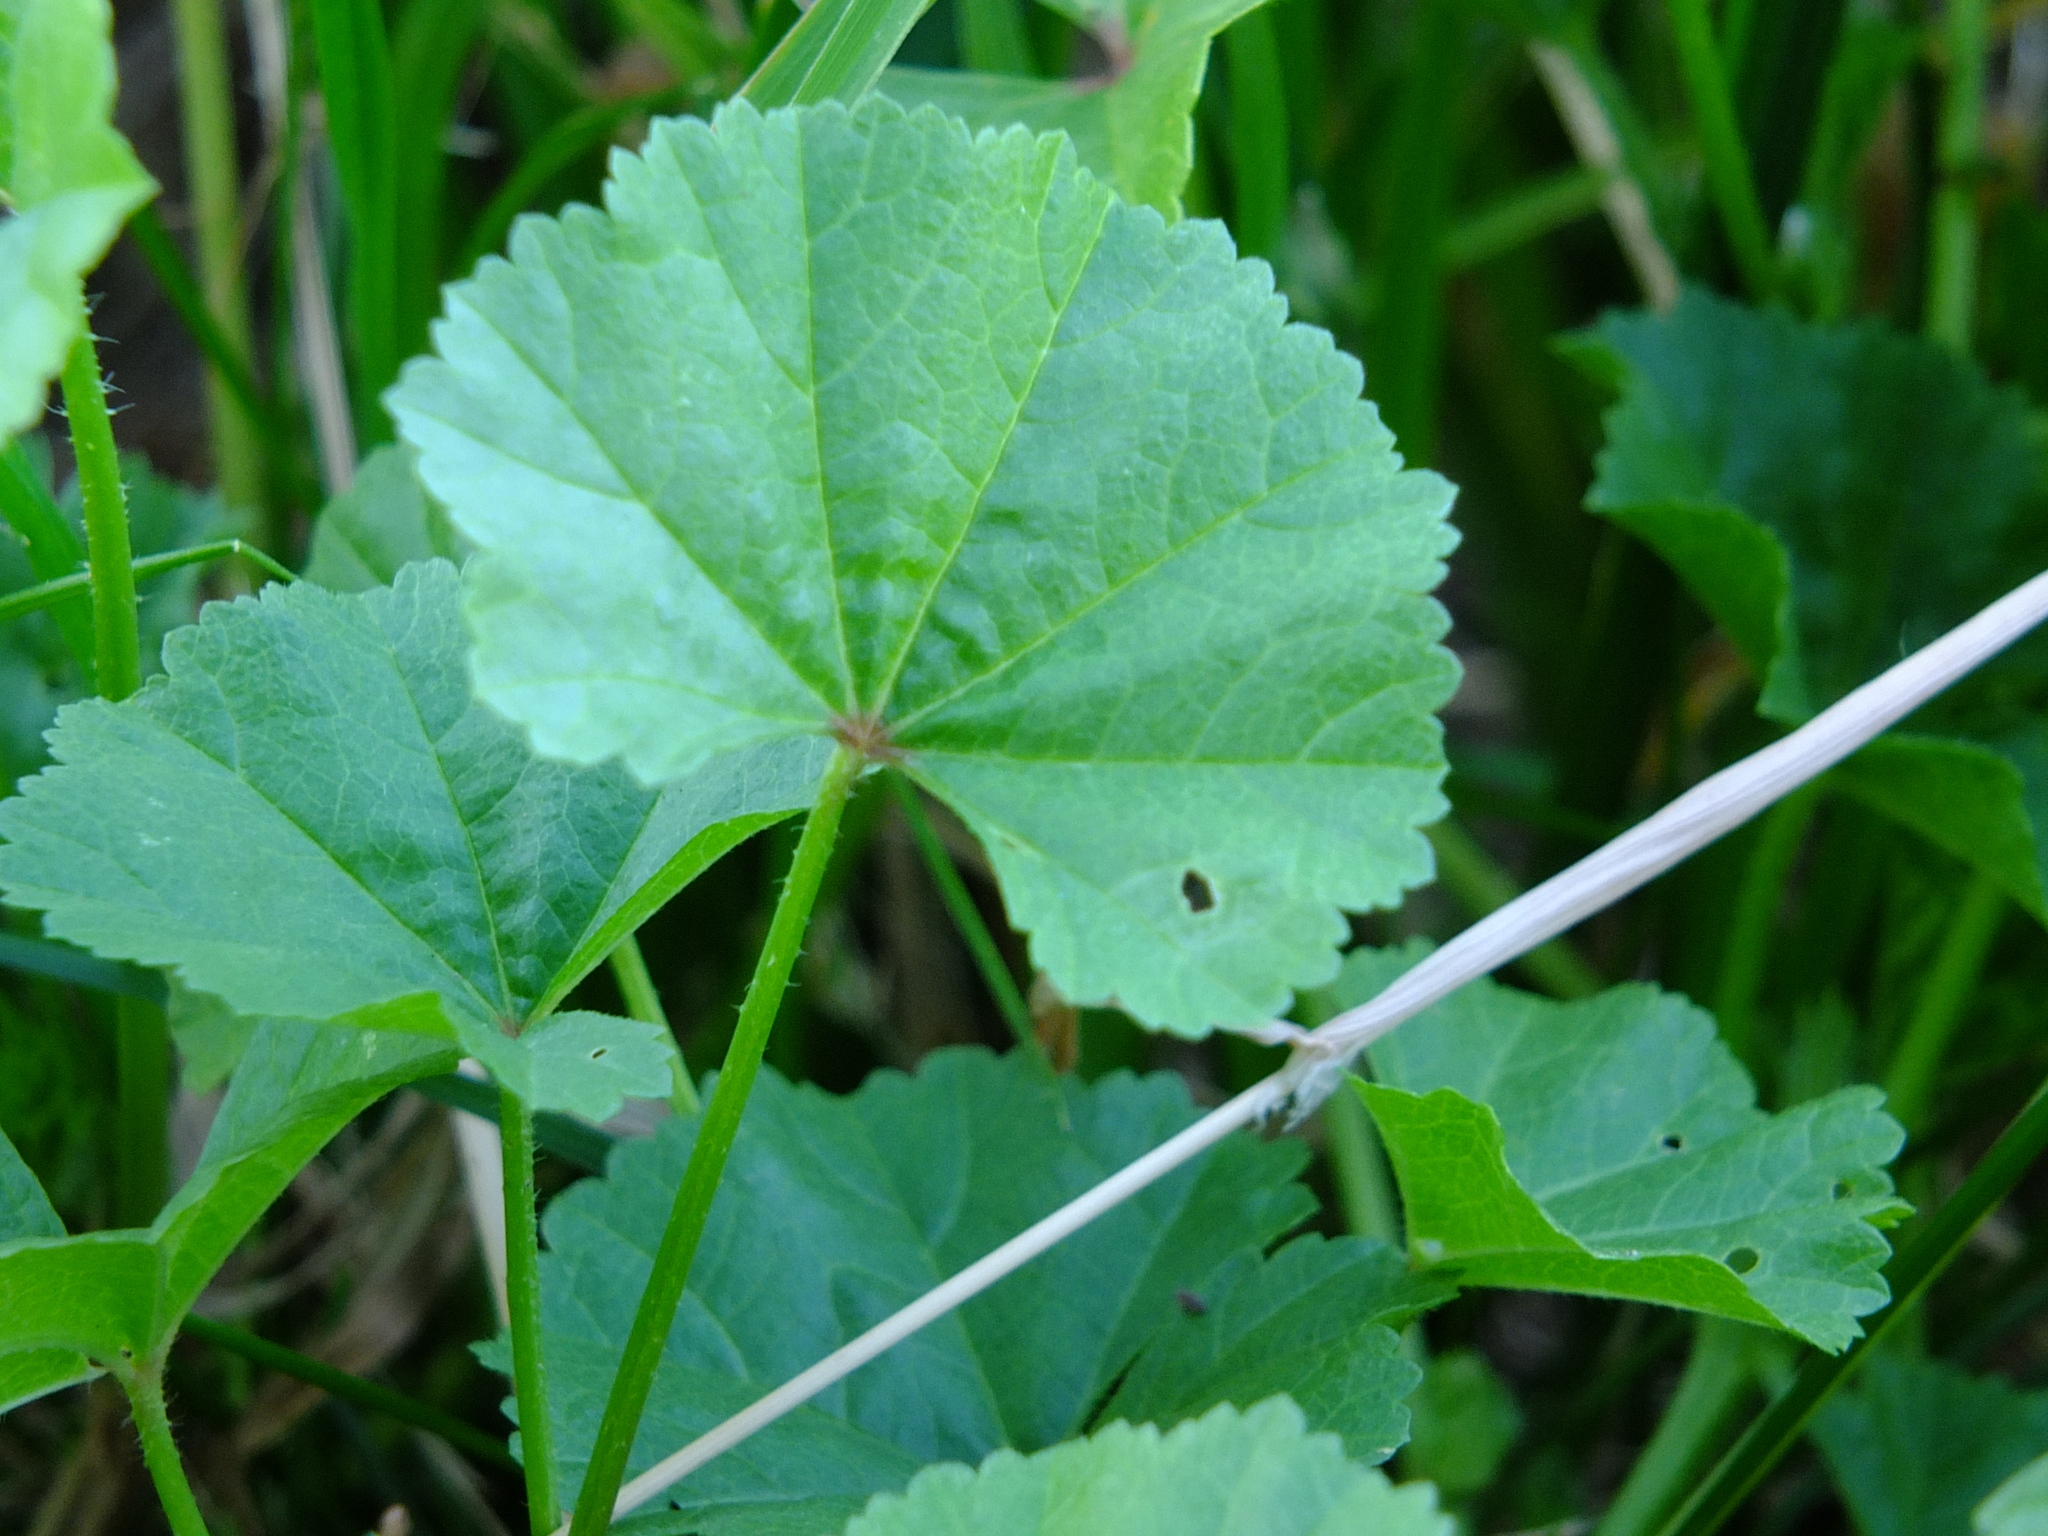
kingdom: Plantae
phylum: Tracheophyta
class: Magnoliopsida
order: Malvales
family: Malvaceae
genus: Malva
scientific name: Malva pusilla
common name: Small mallow
